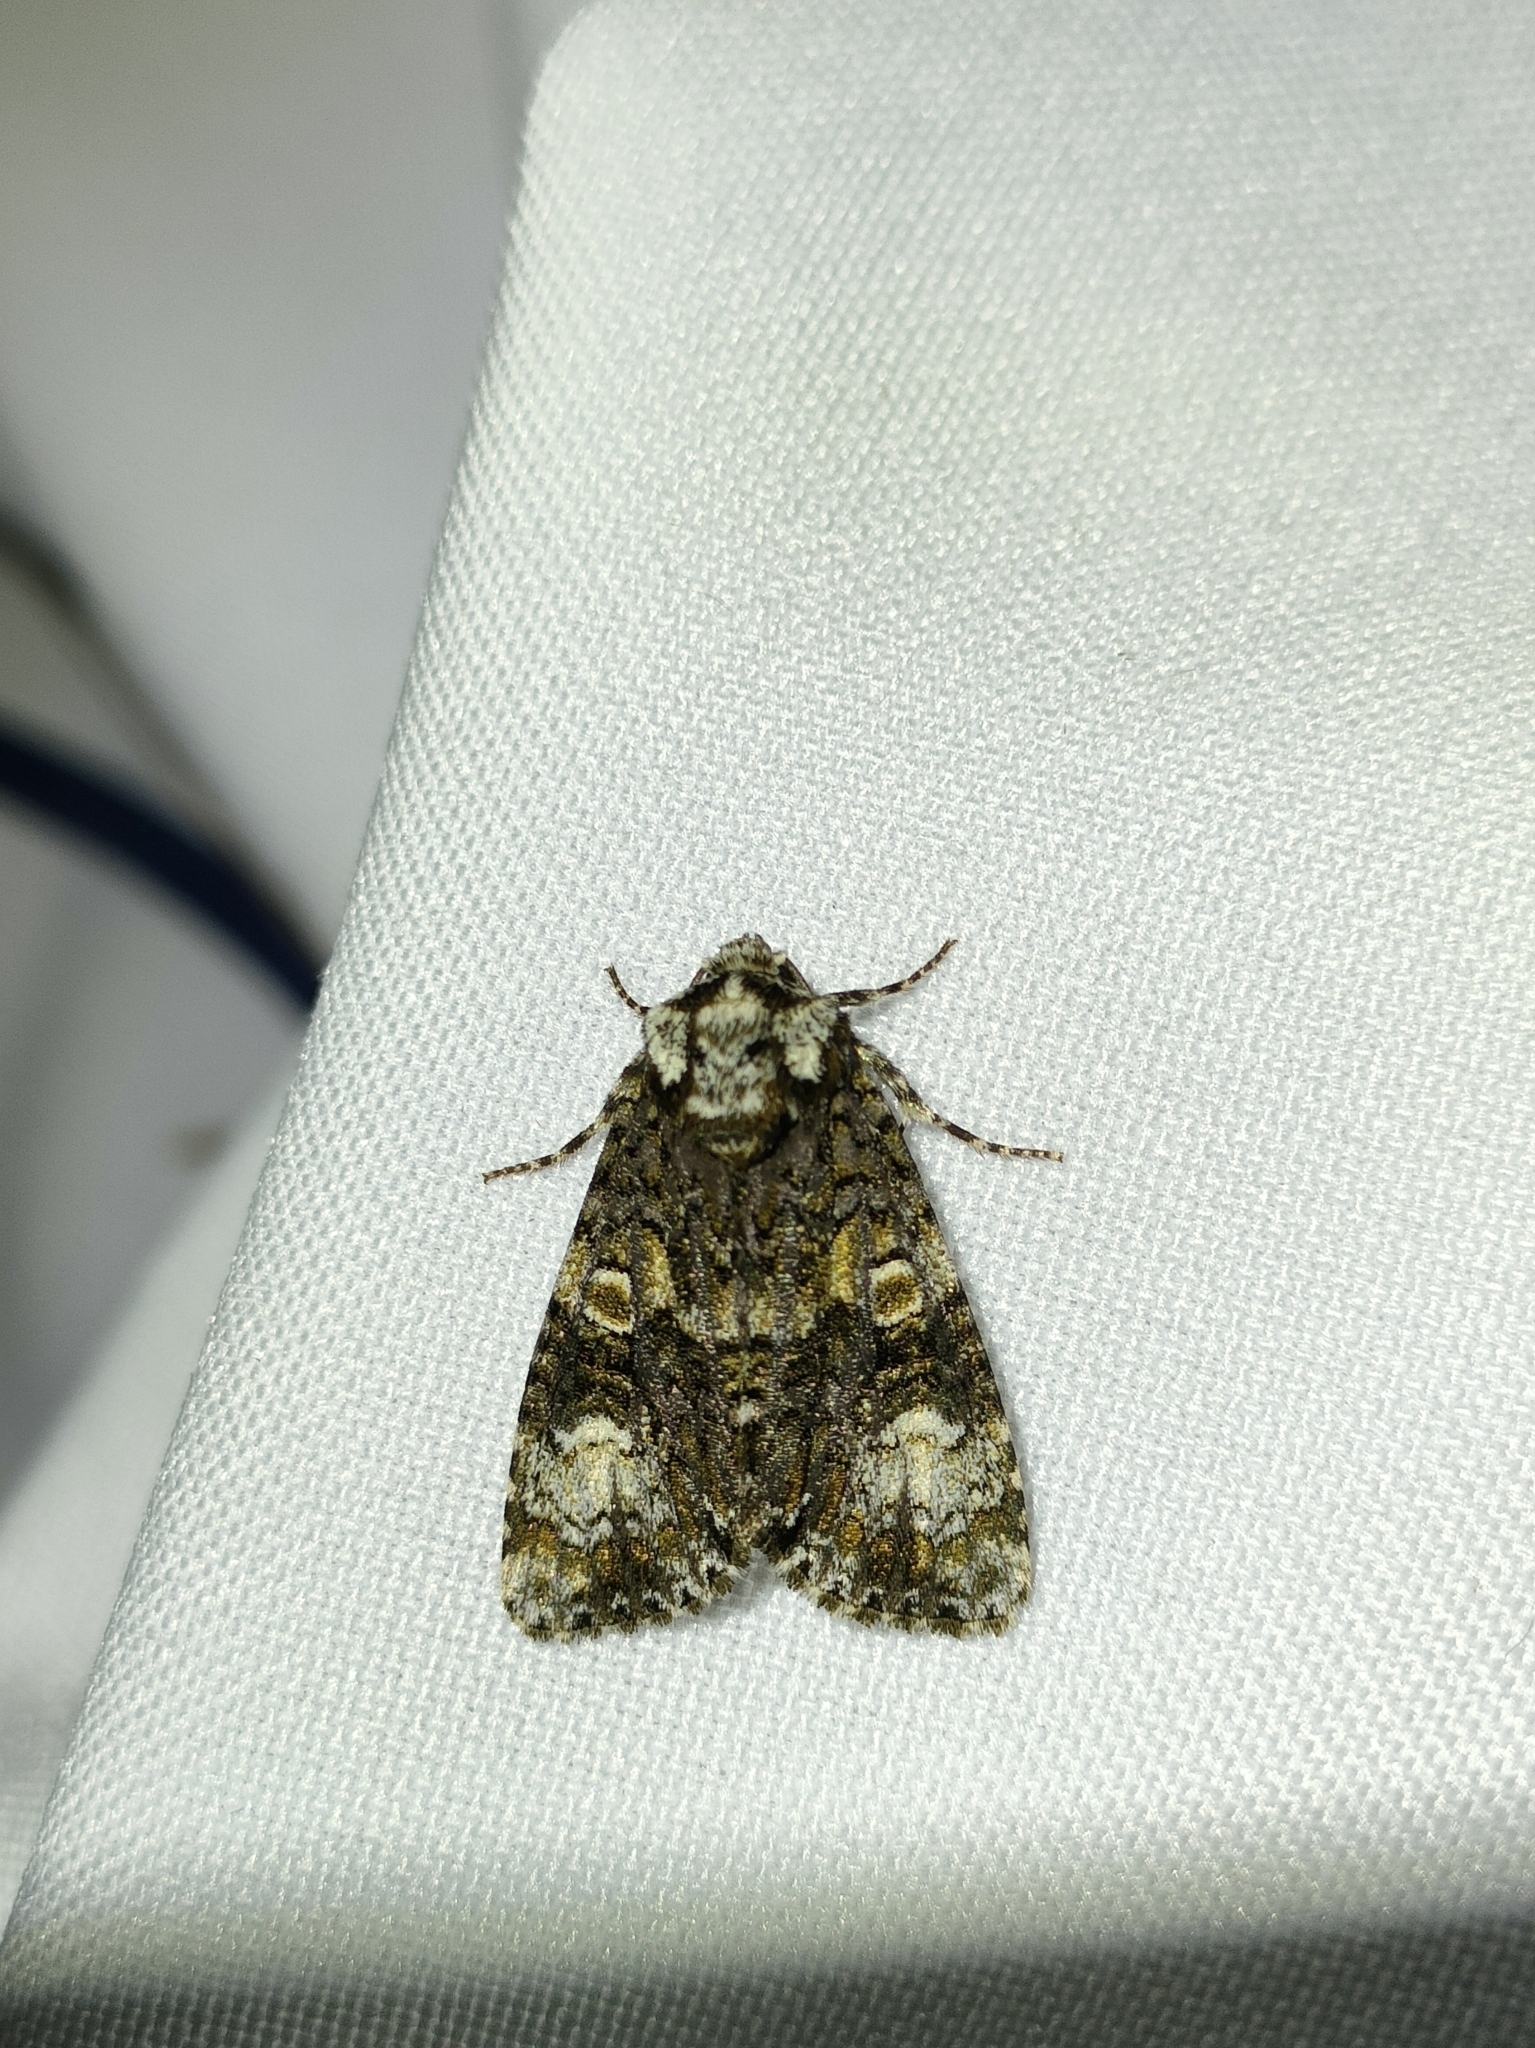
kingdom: Animalia
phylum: Arthropoda
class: Insecta
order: Lepidoptera
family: Noctuidae
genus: Craniophora
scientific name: Craniophora ligustri
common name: Coronet
